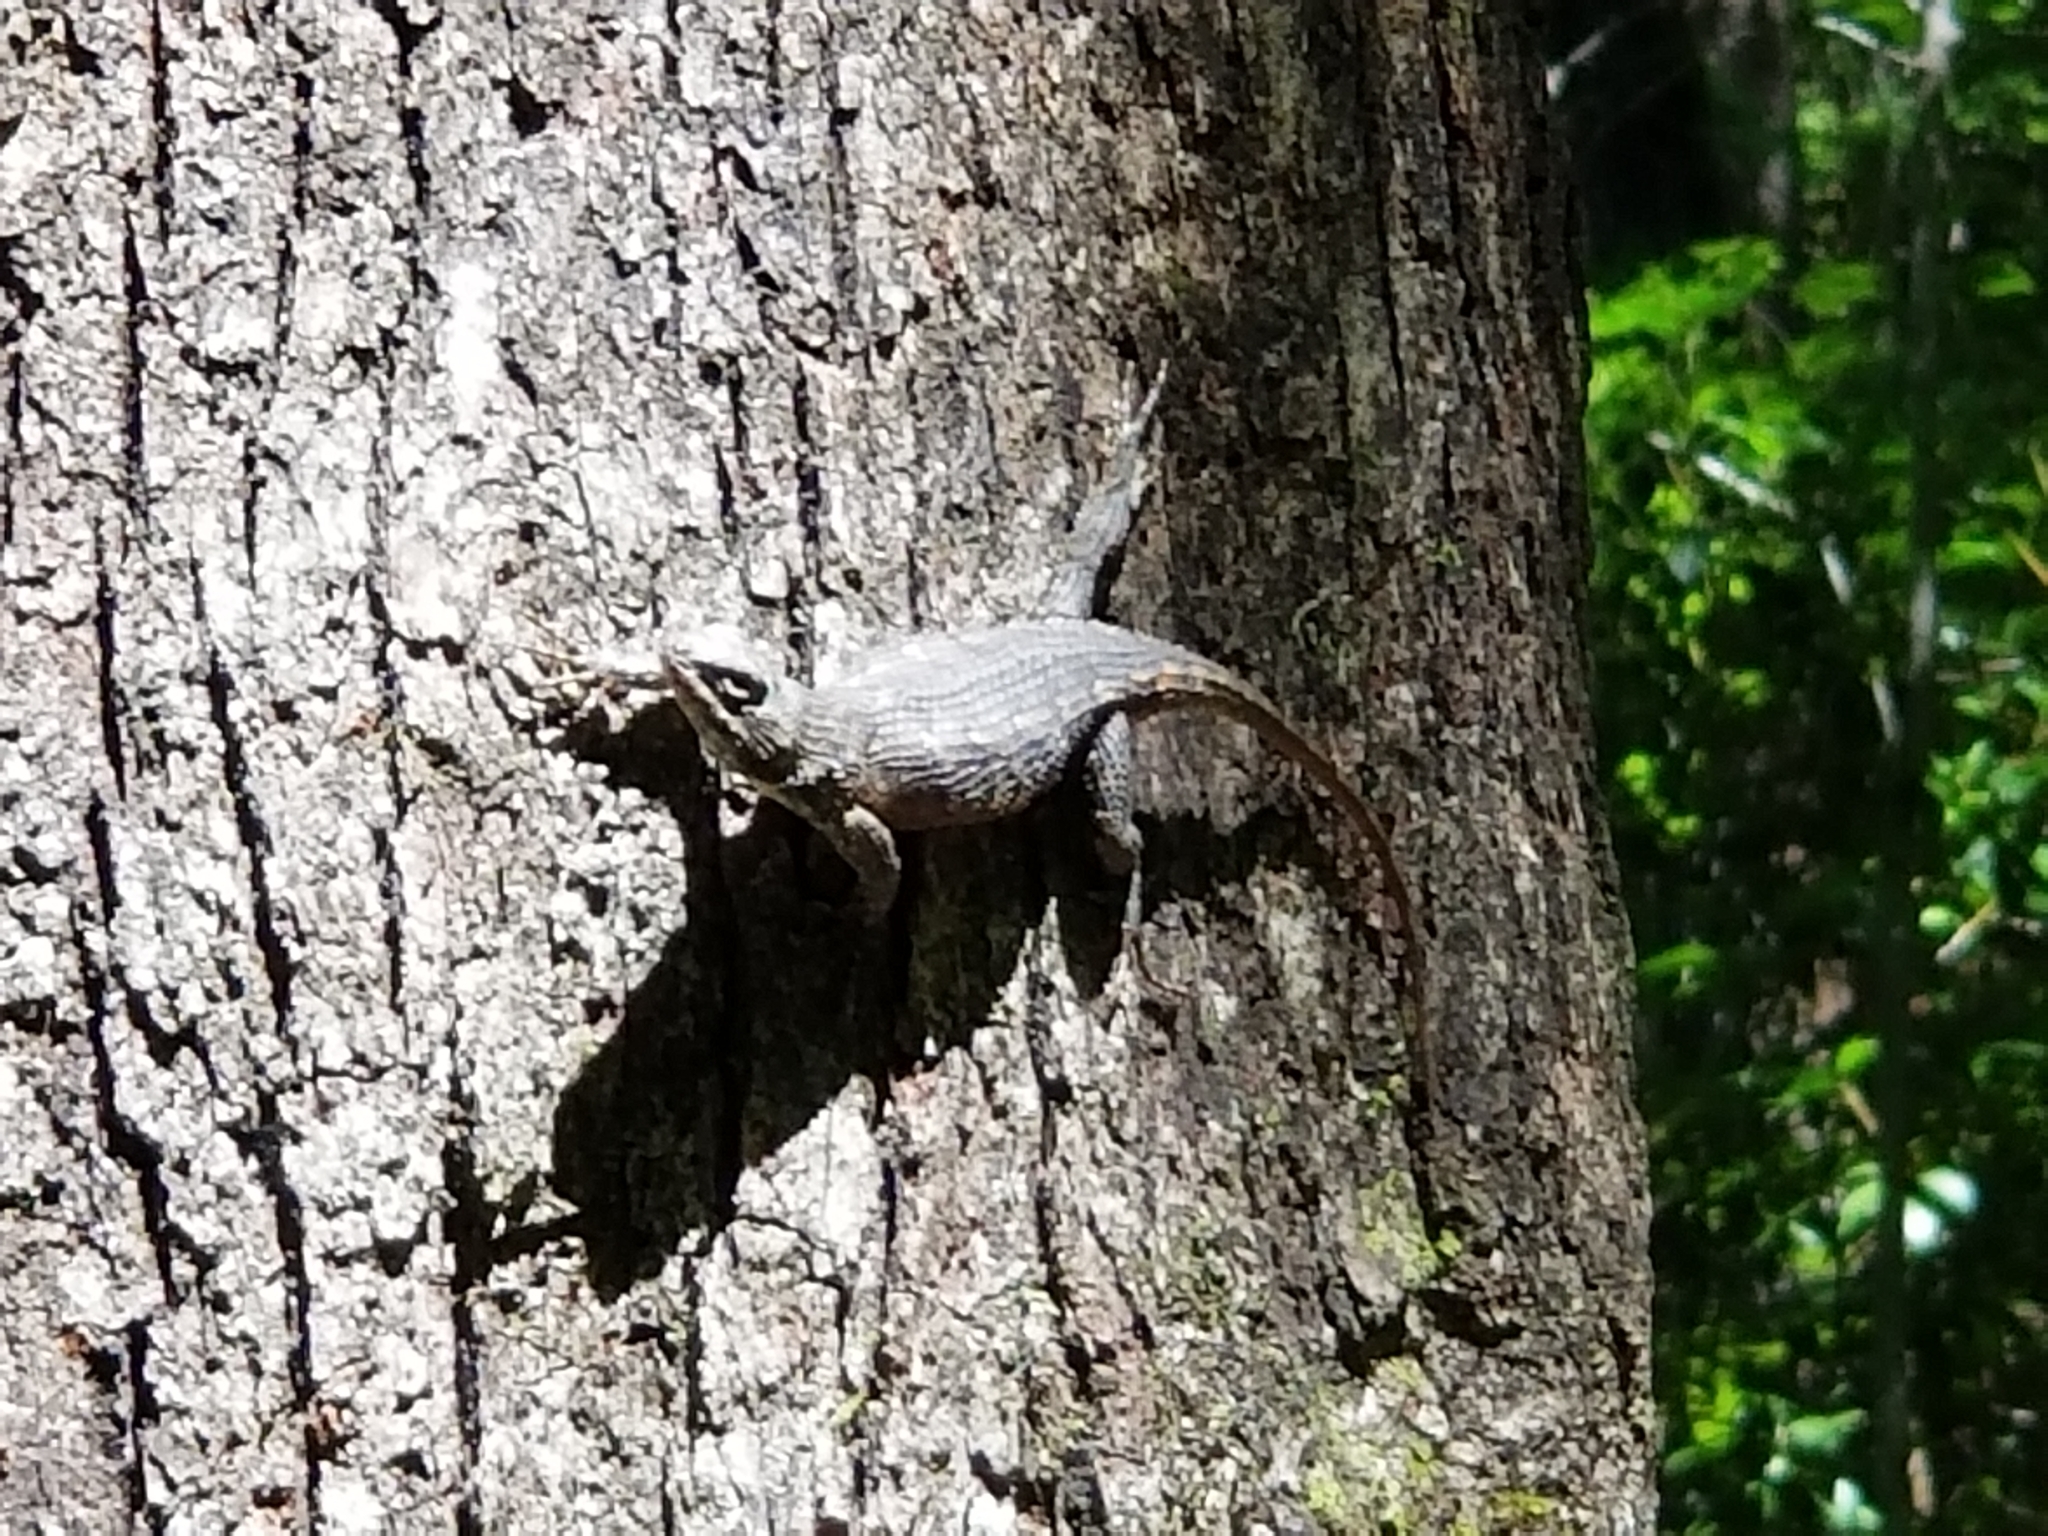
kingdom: Animalia
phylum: Chordata
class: Squamata
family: Phrynosomatidae
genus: Sceloporus
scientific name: Sceloporus undulatus
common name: Eastern fence lizard
